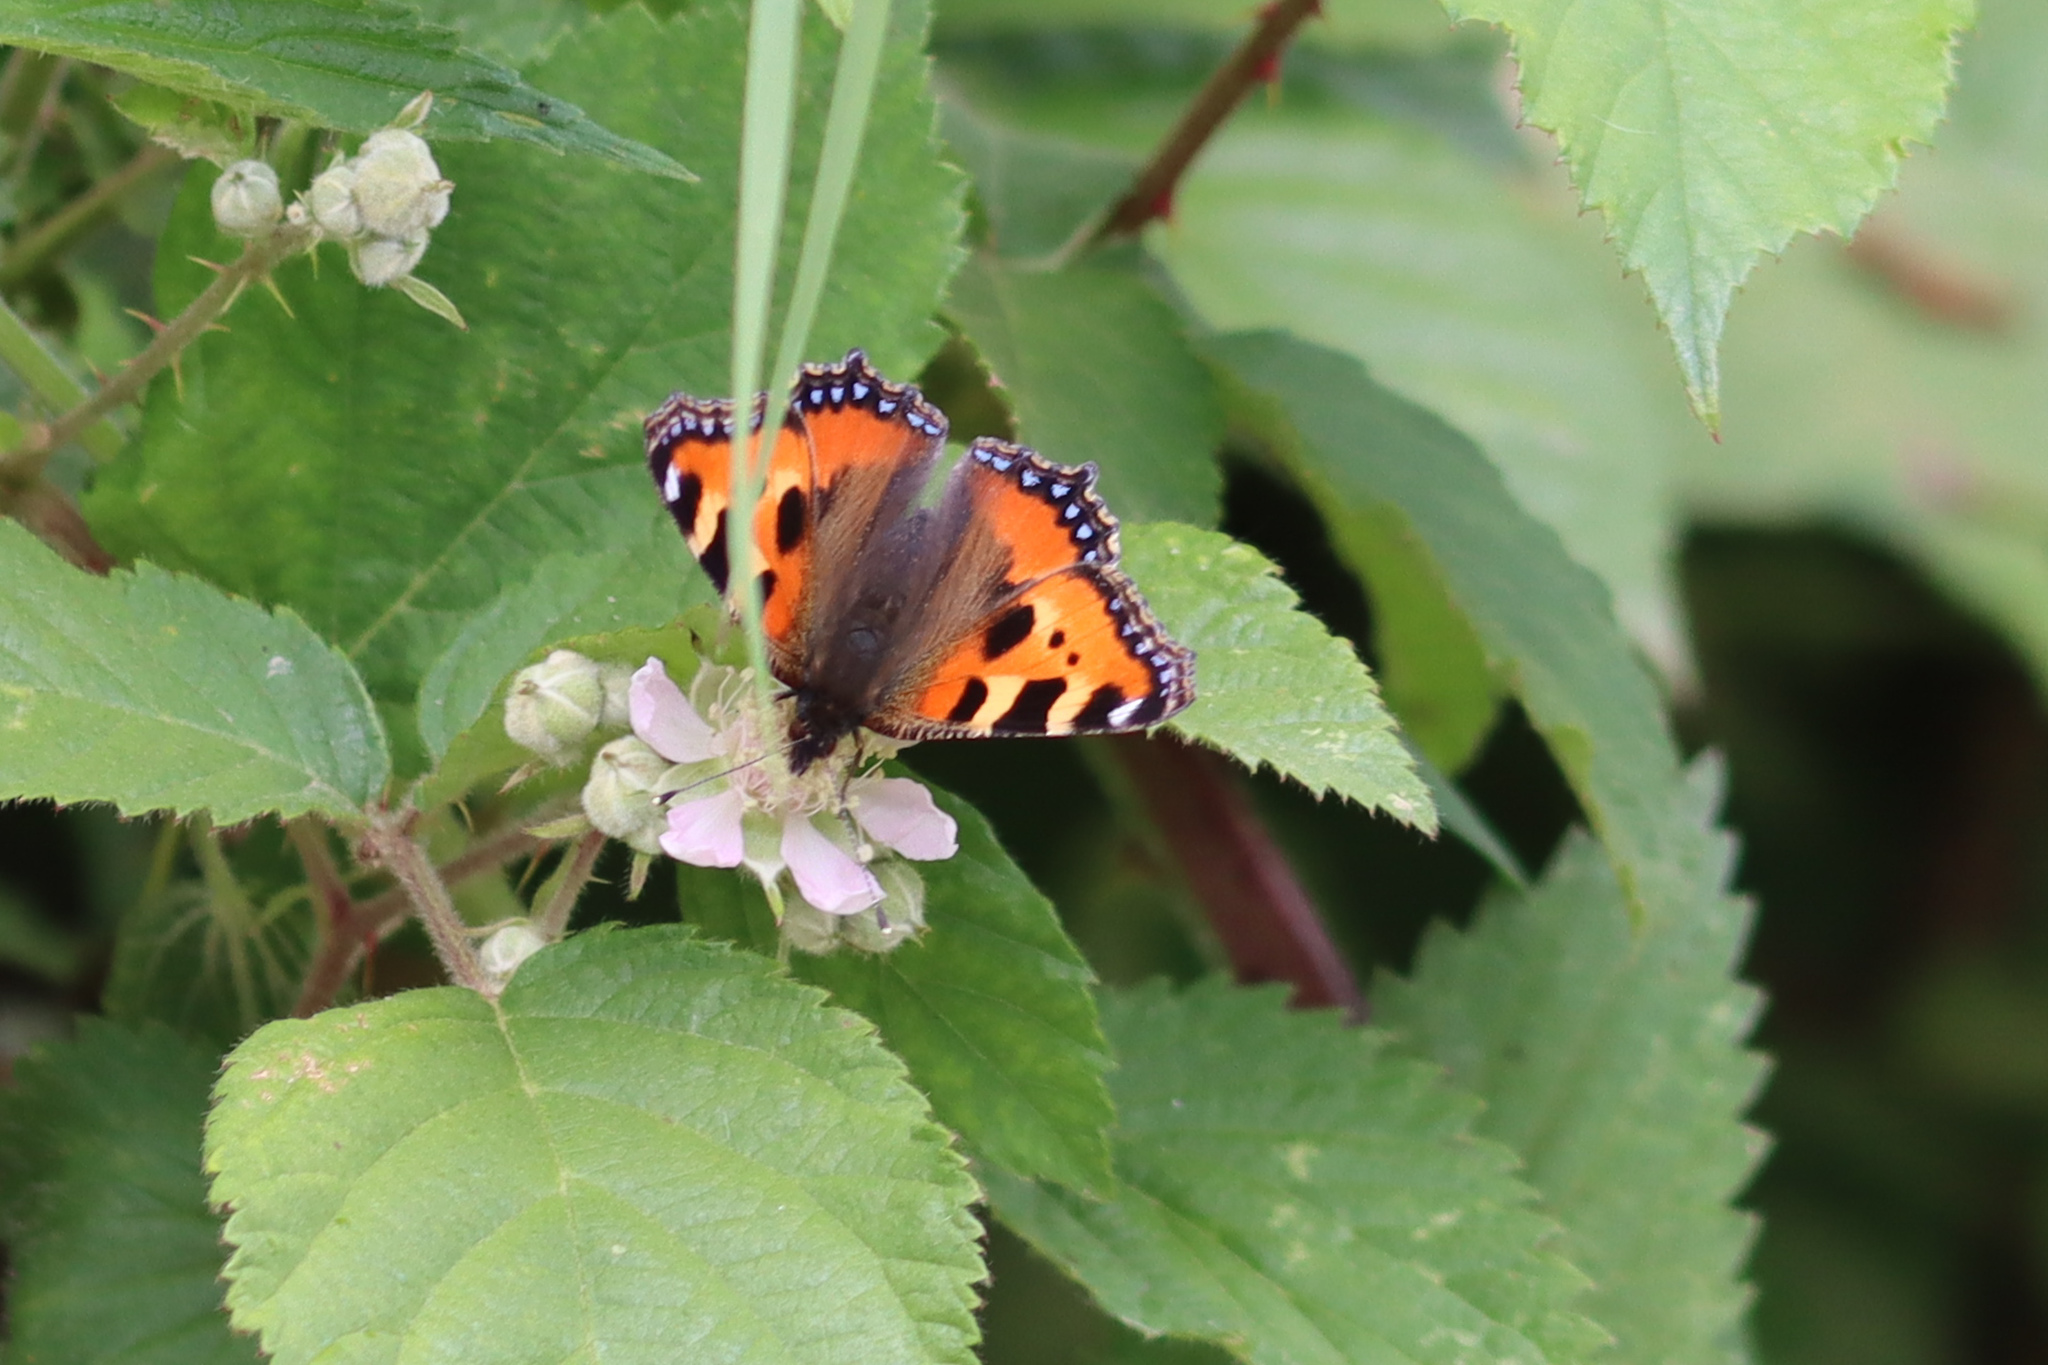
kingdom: Animalia
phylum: Arthropoda
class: Insecta
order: Lepidoptera
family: Nymphalidae
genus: Aglais
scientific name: Aglais urticae
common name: Small tortoiseshell
